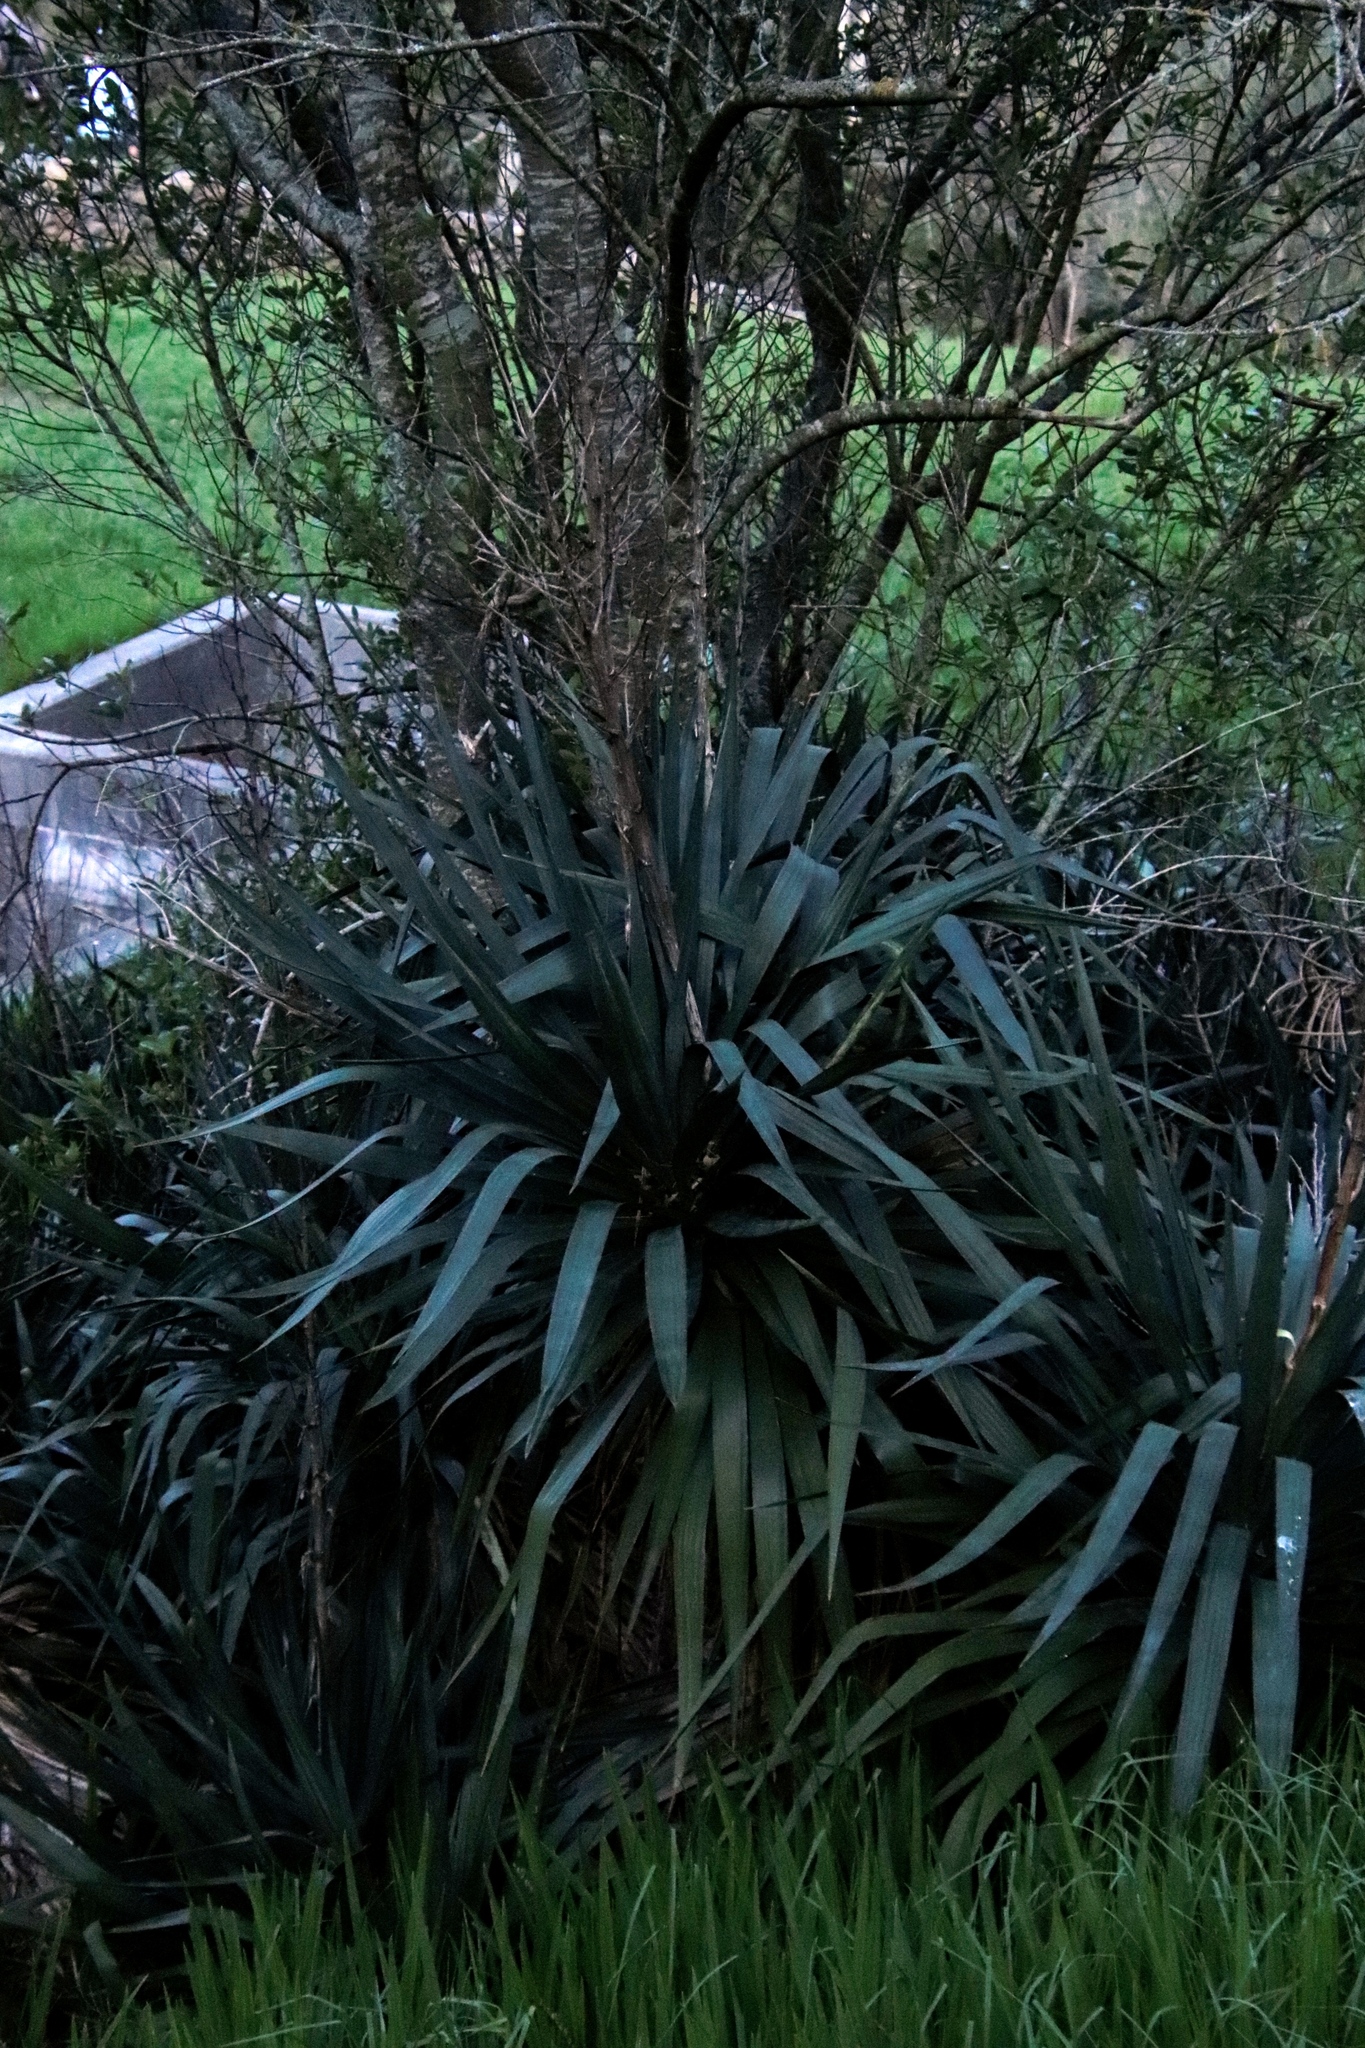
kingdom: Plantae
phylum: Tracheophyta
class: Liliopsida
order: Asparagales
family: Asparagaceae
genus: Yucca
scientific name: Yucca gloriosa
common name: Spanish-dagger
